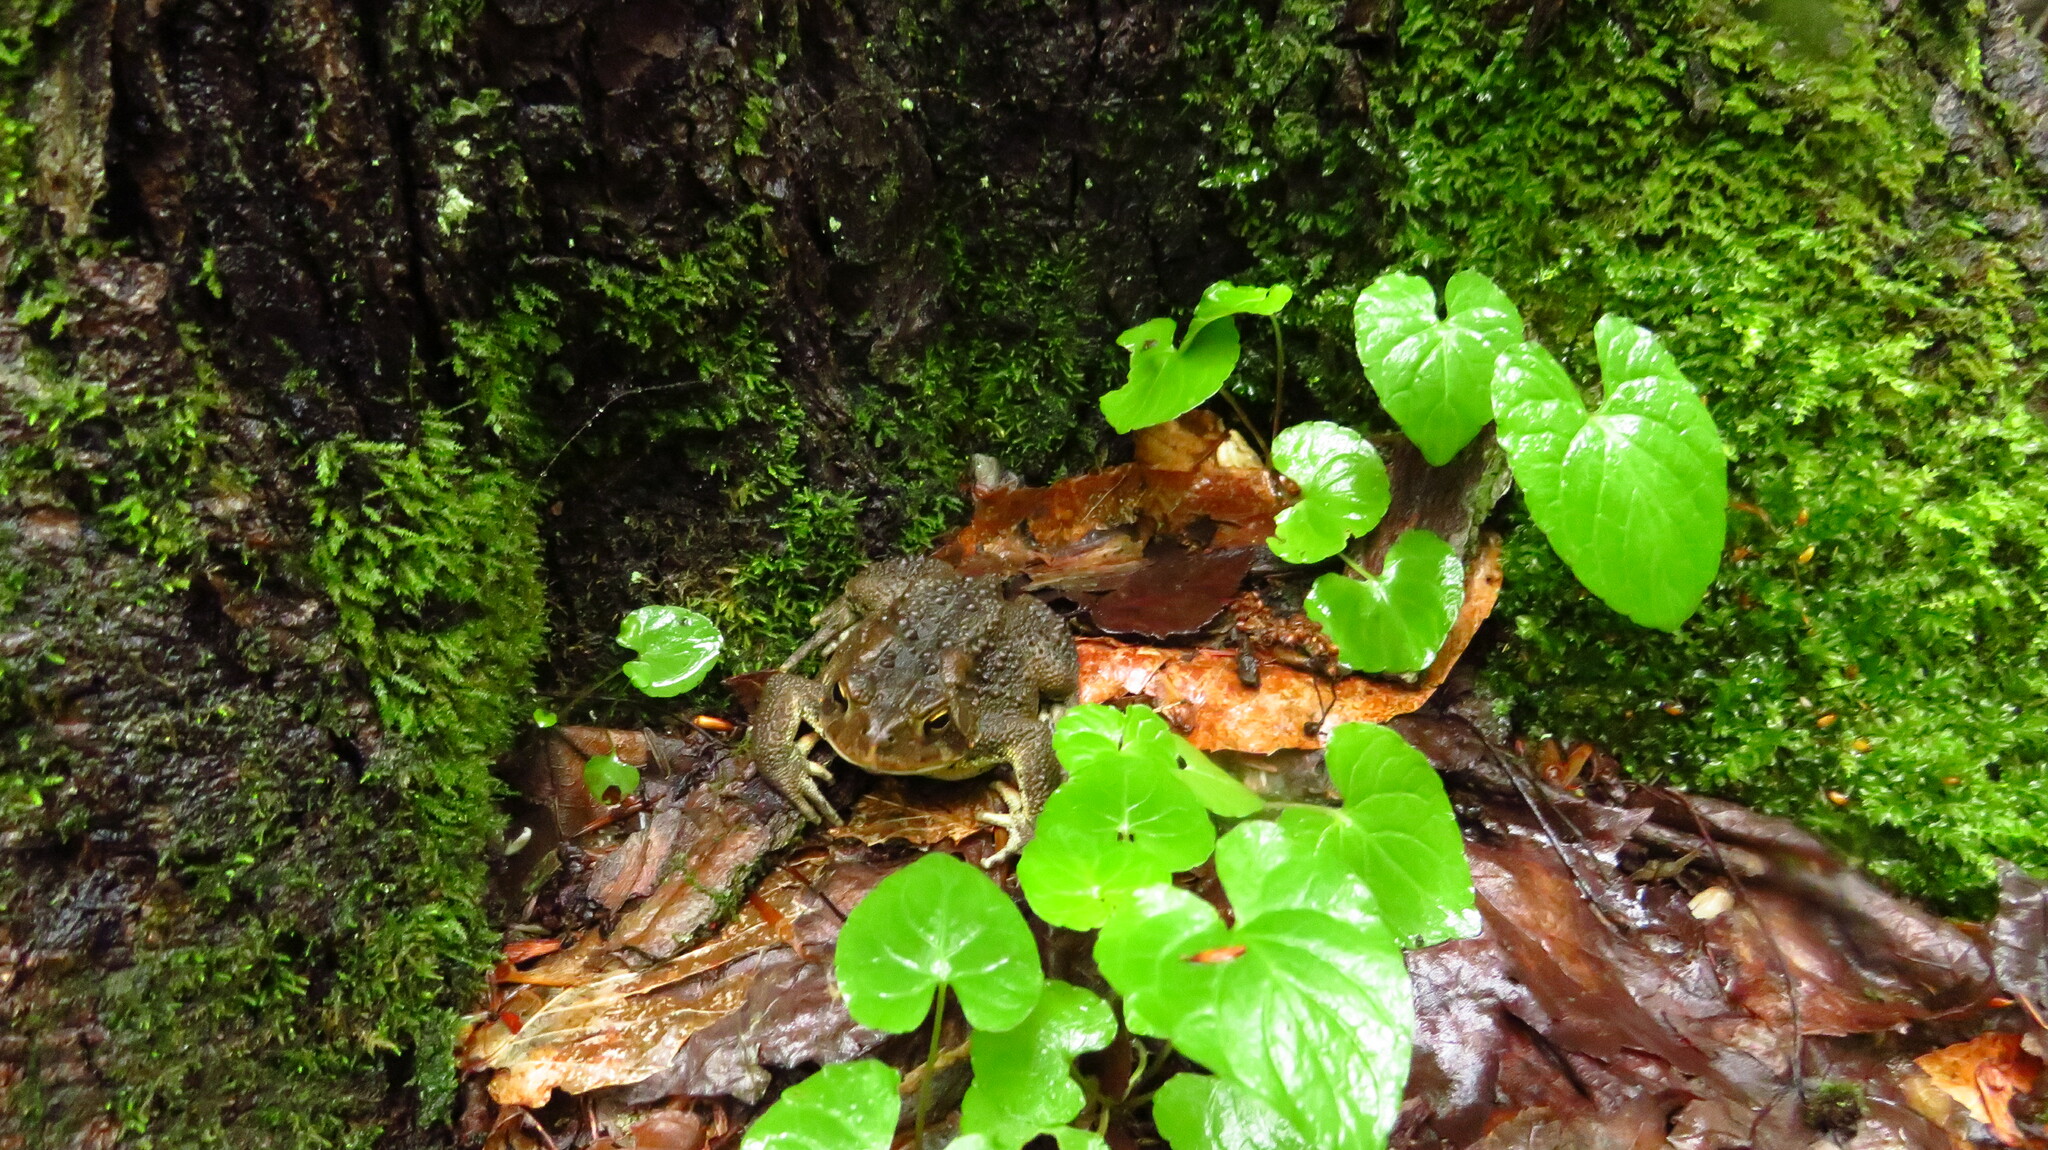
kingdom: Animalia
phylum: Chordata
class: Amphibia
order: Anura
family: Bufonidae
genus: Anaxyrus
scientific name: Anaxyrus americanus
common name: American toad
